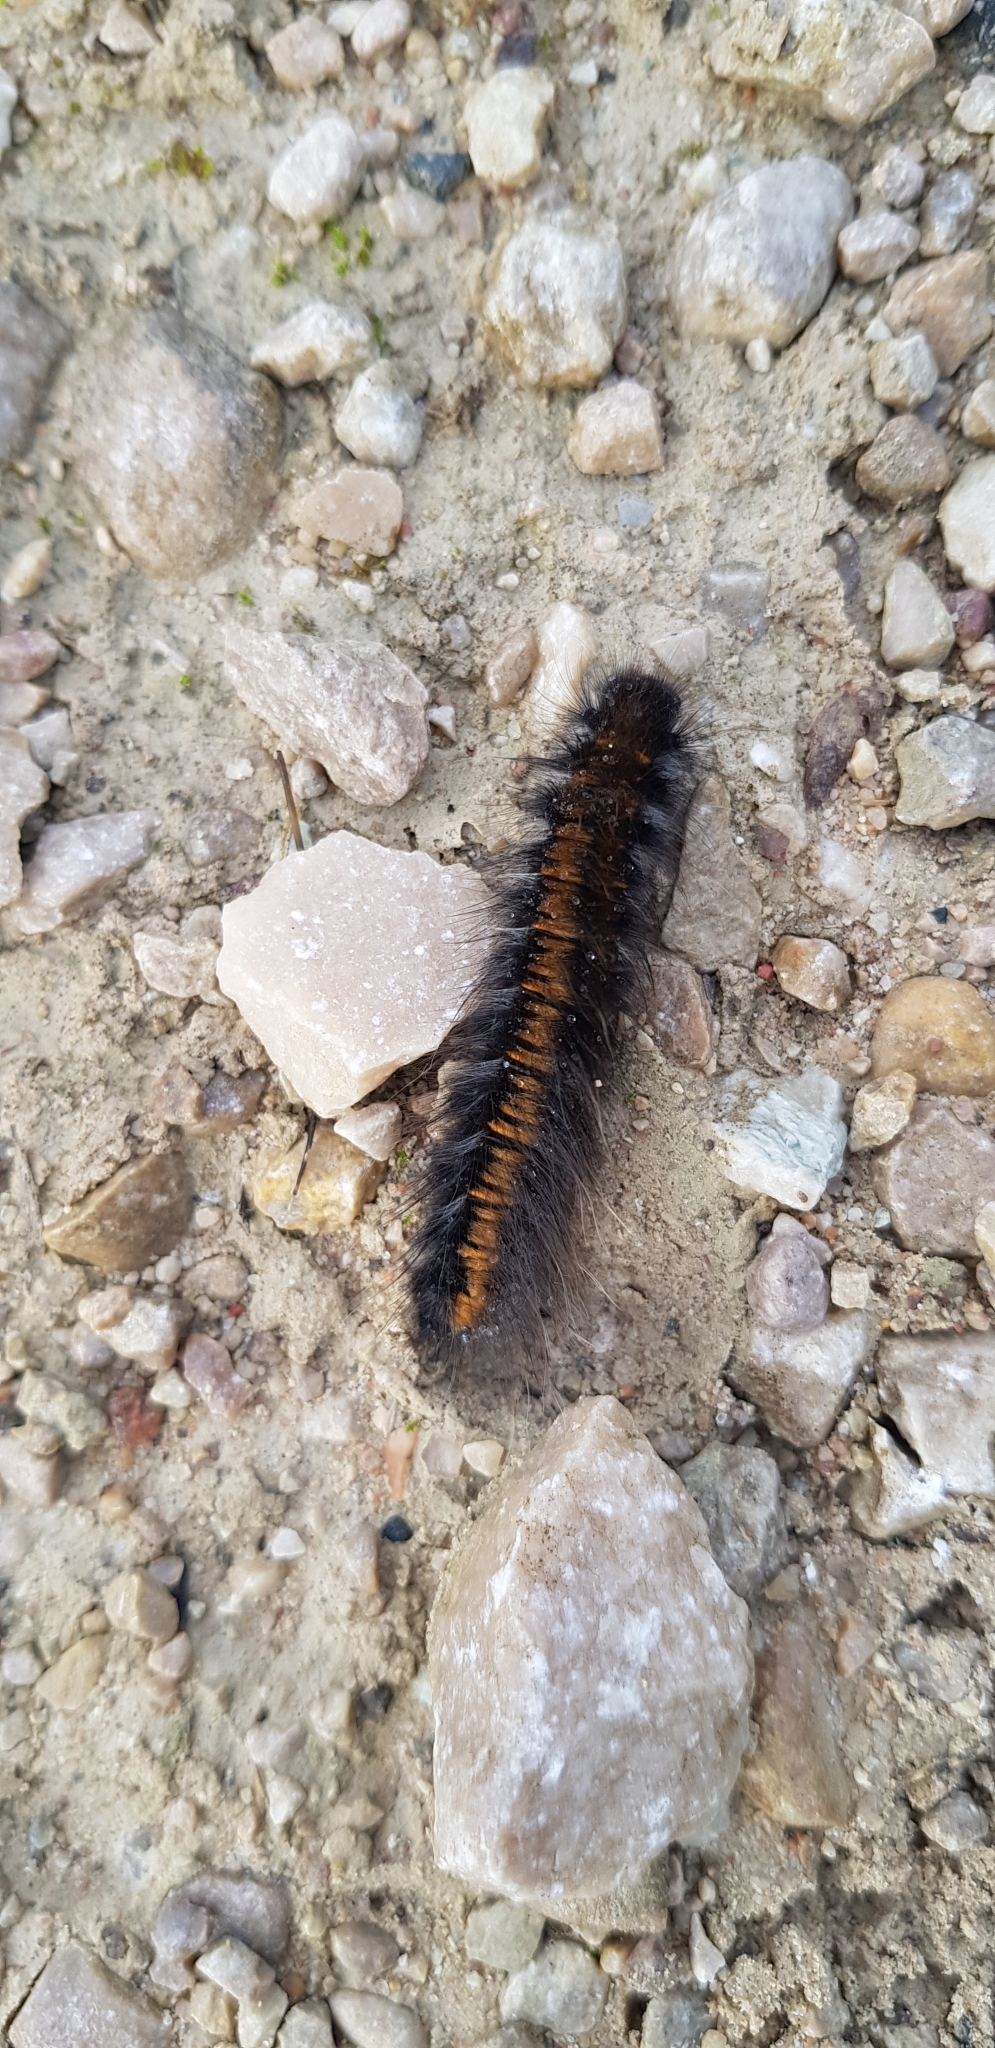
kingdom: Animalia
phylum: Arthropoda
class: Insecta
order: Lepidoptera
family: Lasiocampidae
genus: Macrothylacia
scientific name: Macrothylacia rubi
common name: Fox moth
